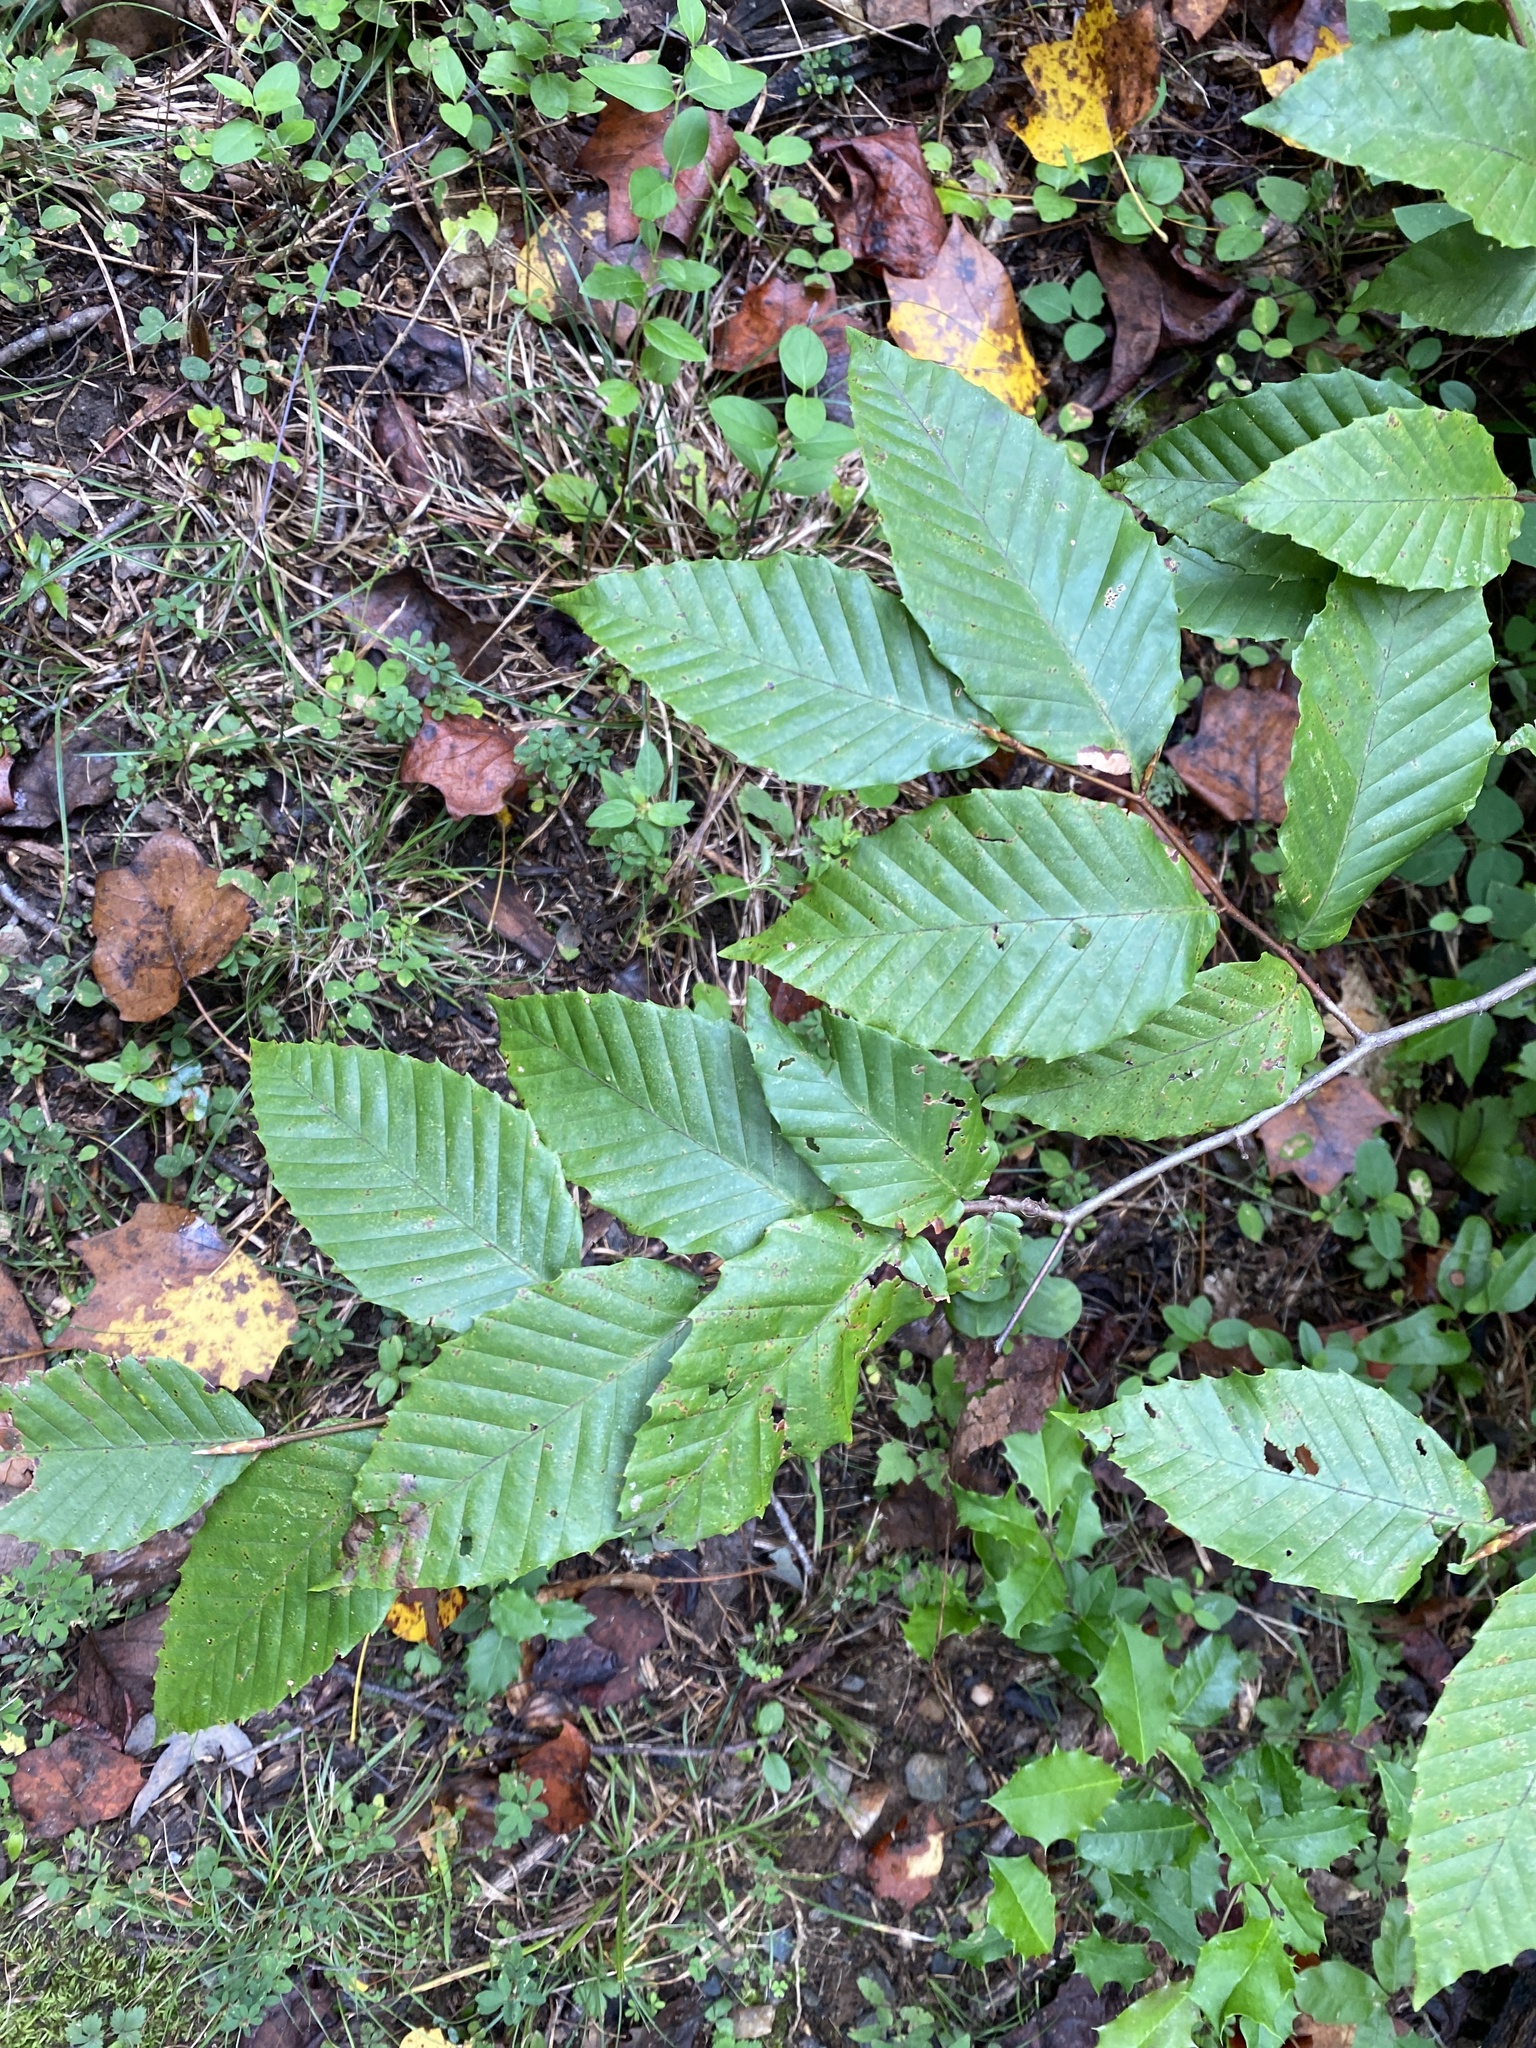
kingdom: Plantae
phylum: Tracheophyta
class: Magnoliopsida
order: Fagales
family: Fagaceae
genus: Fagus
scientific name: Fagus grandifolia
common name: American beech
